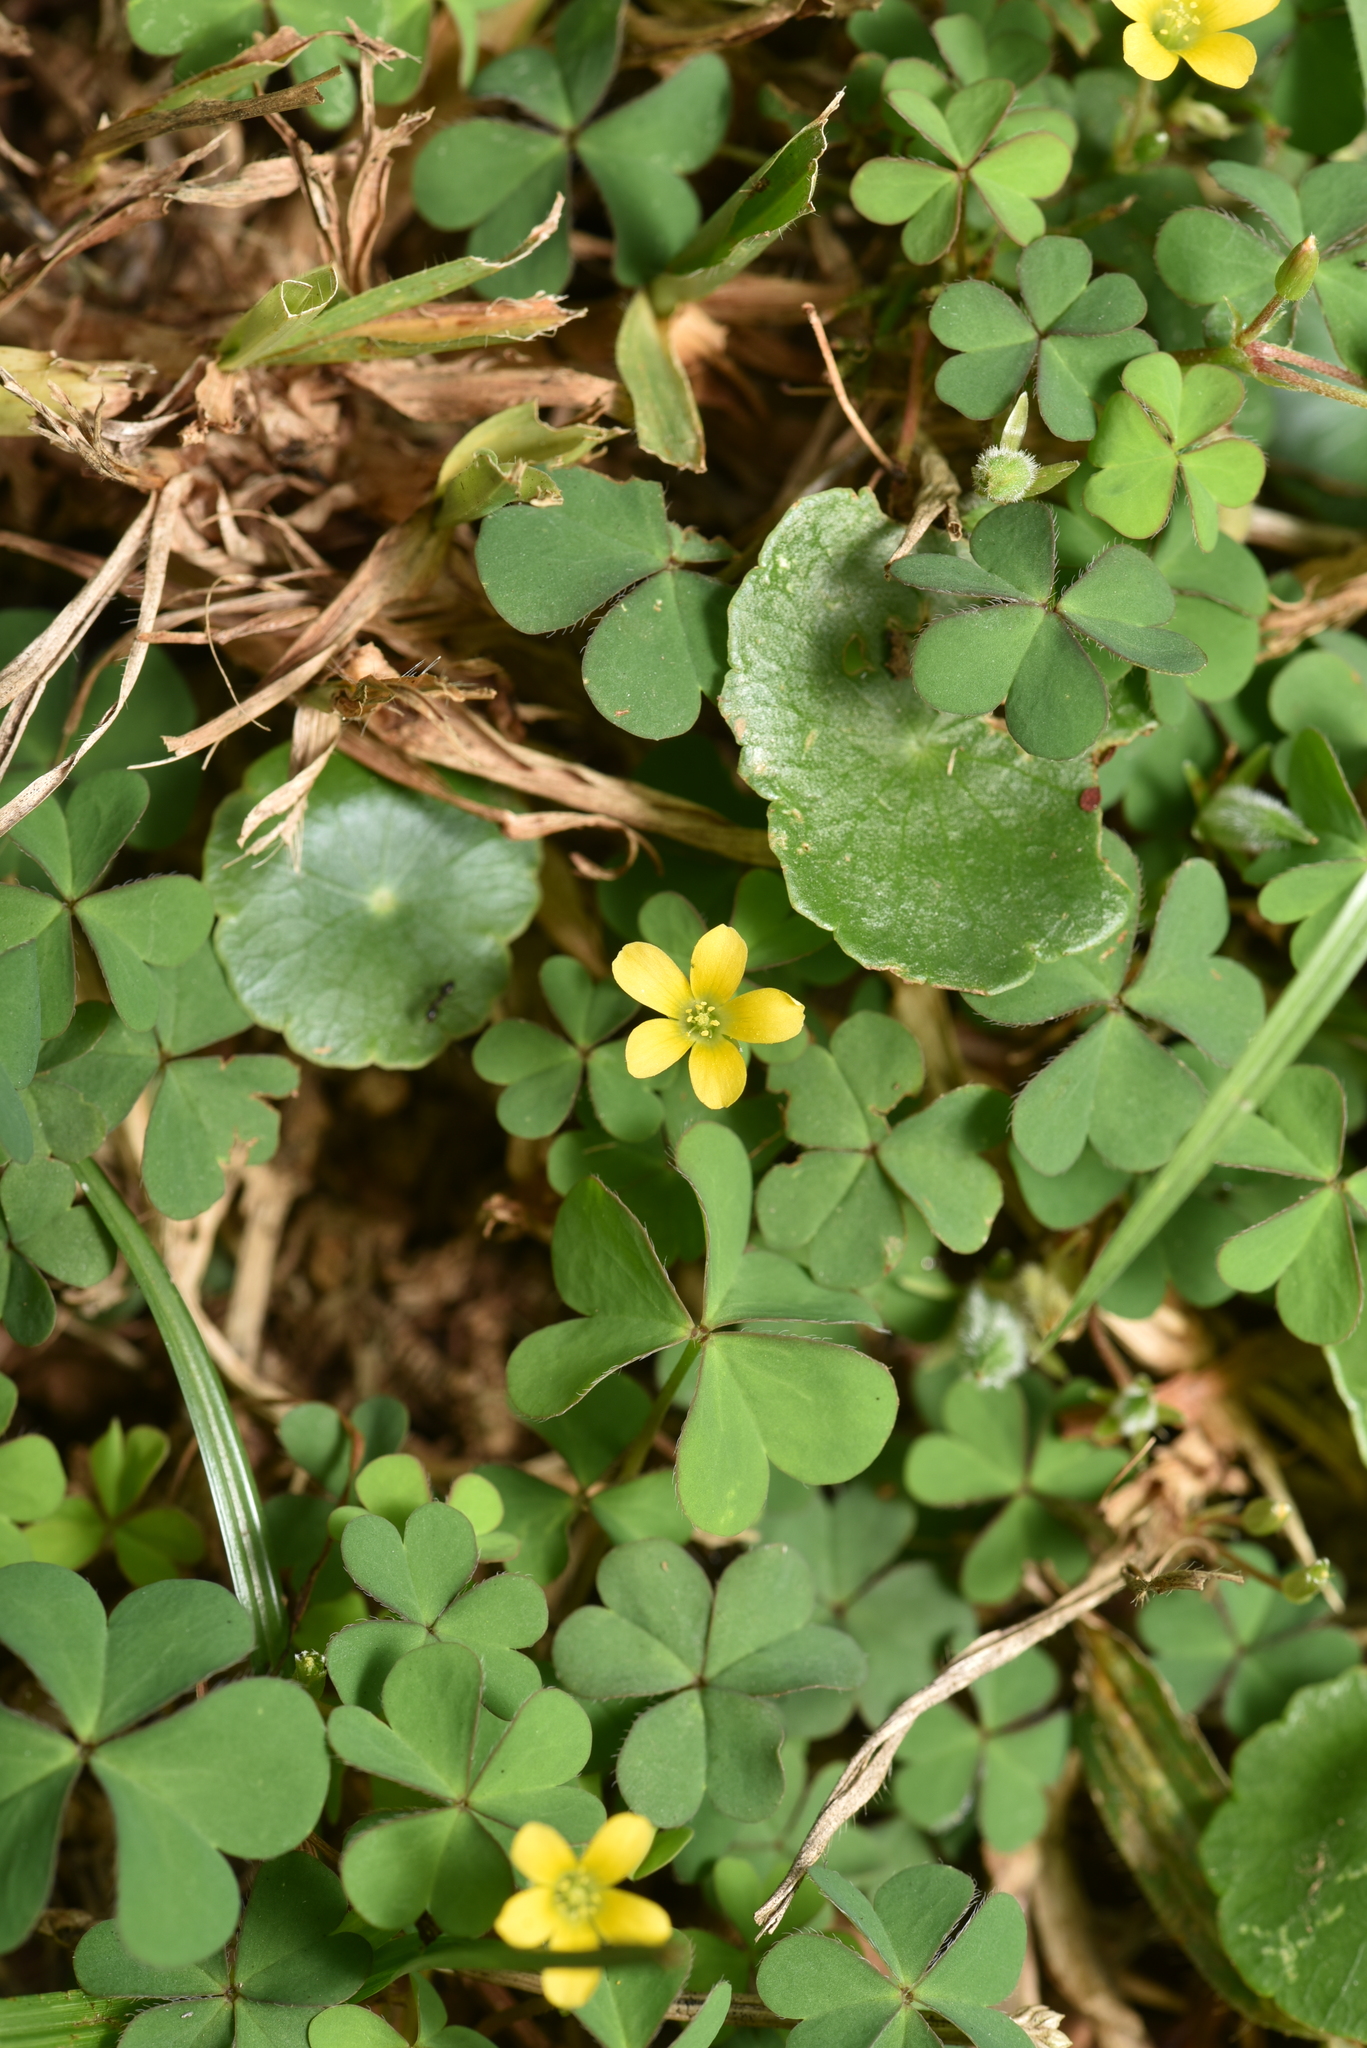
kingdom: Plantae
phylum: Tracheophyta
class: Magnoliopsida
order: Oxalidales
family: Oxalidaceae
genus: Oxalis
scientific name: Oxalis corniculata
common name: Procumbent yellow-sorrel
